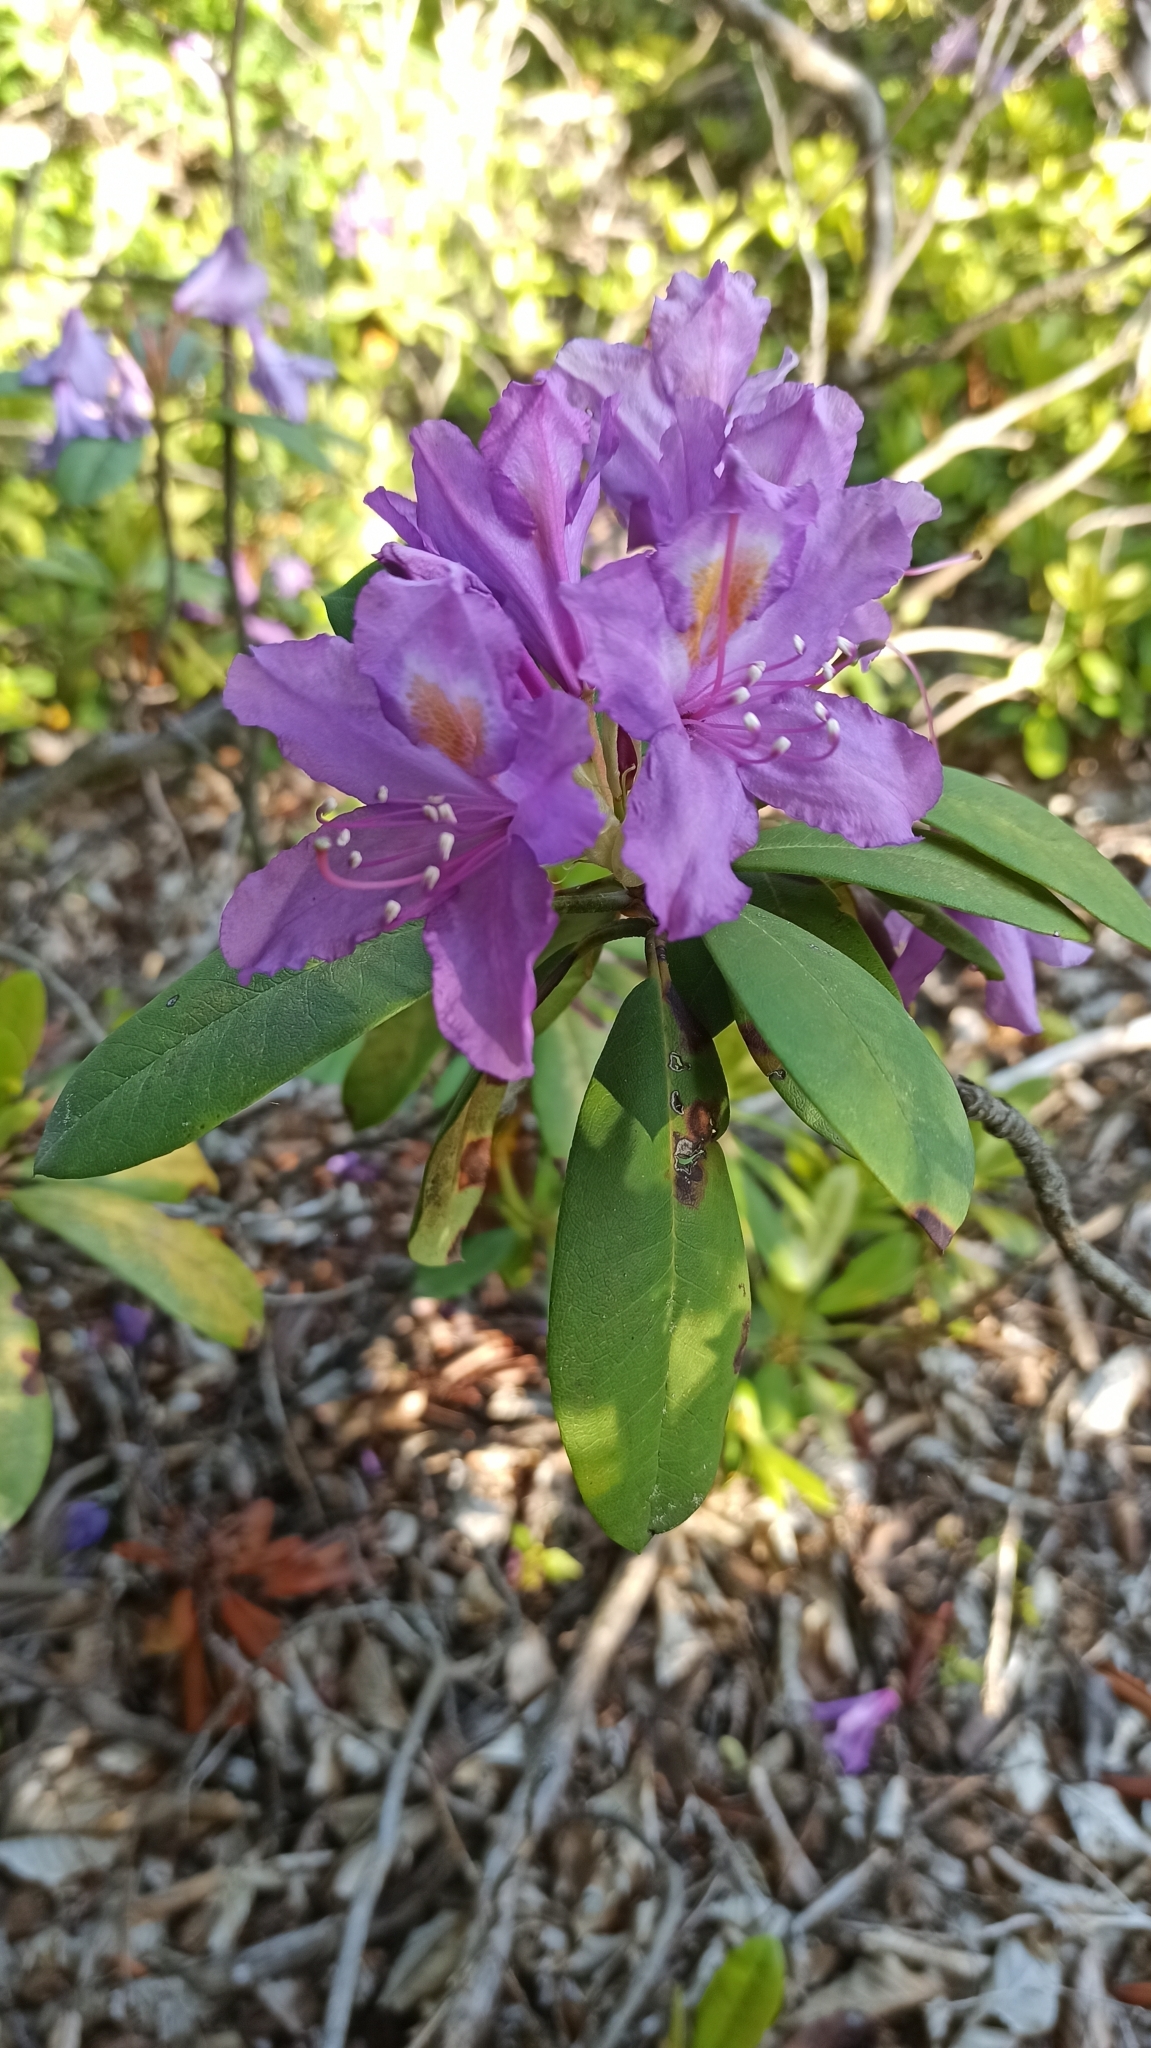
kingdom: Plantae
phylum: Tracheophyta
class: Magnoliopsida
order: Ericales
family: Ericaceae
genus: Rhododendron
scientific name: Rhododendron ponticum
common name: Rhododendron
